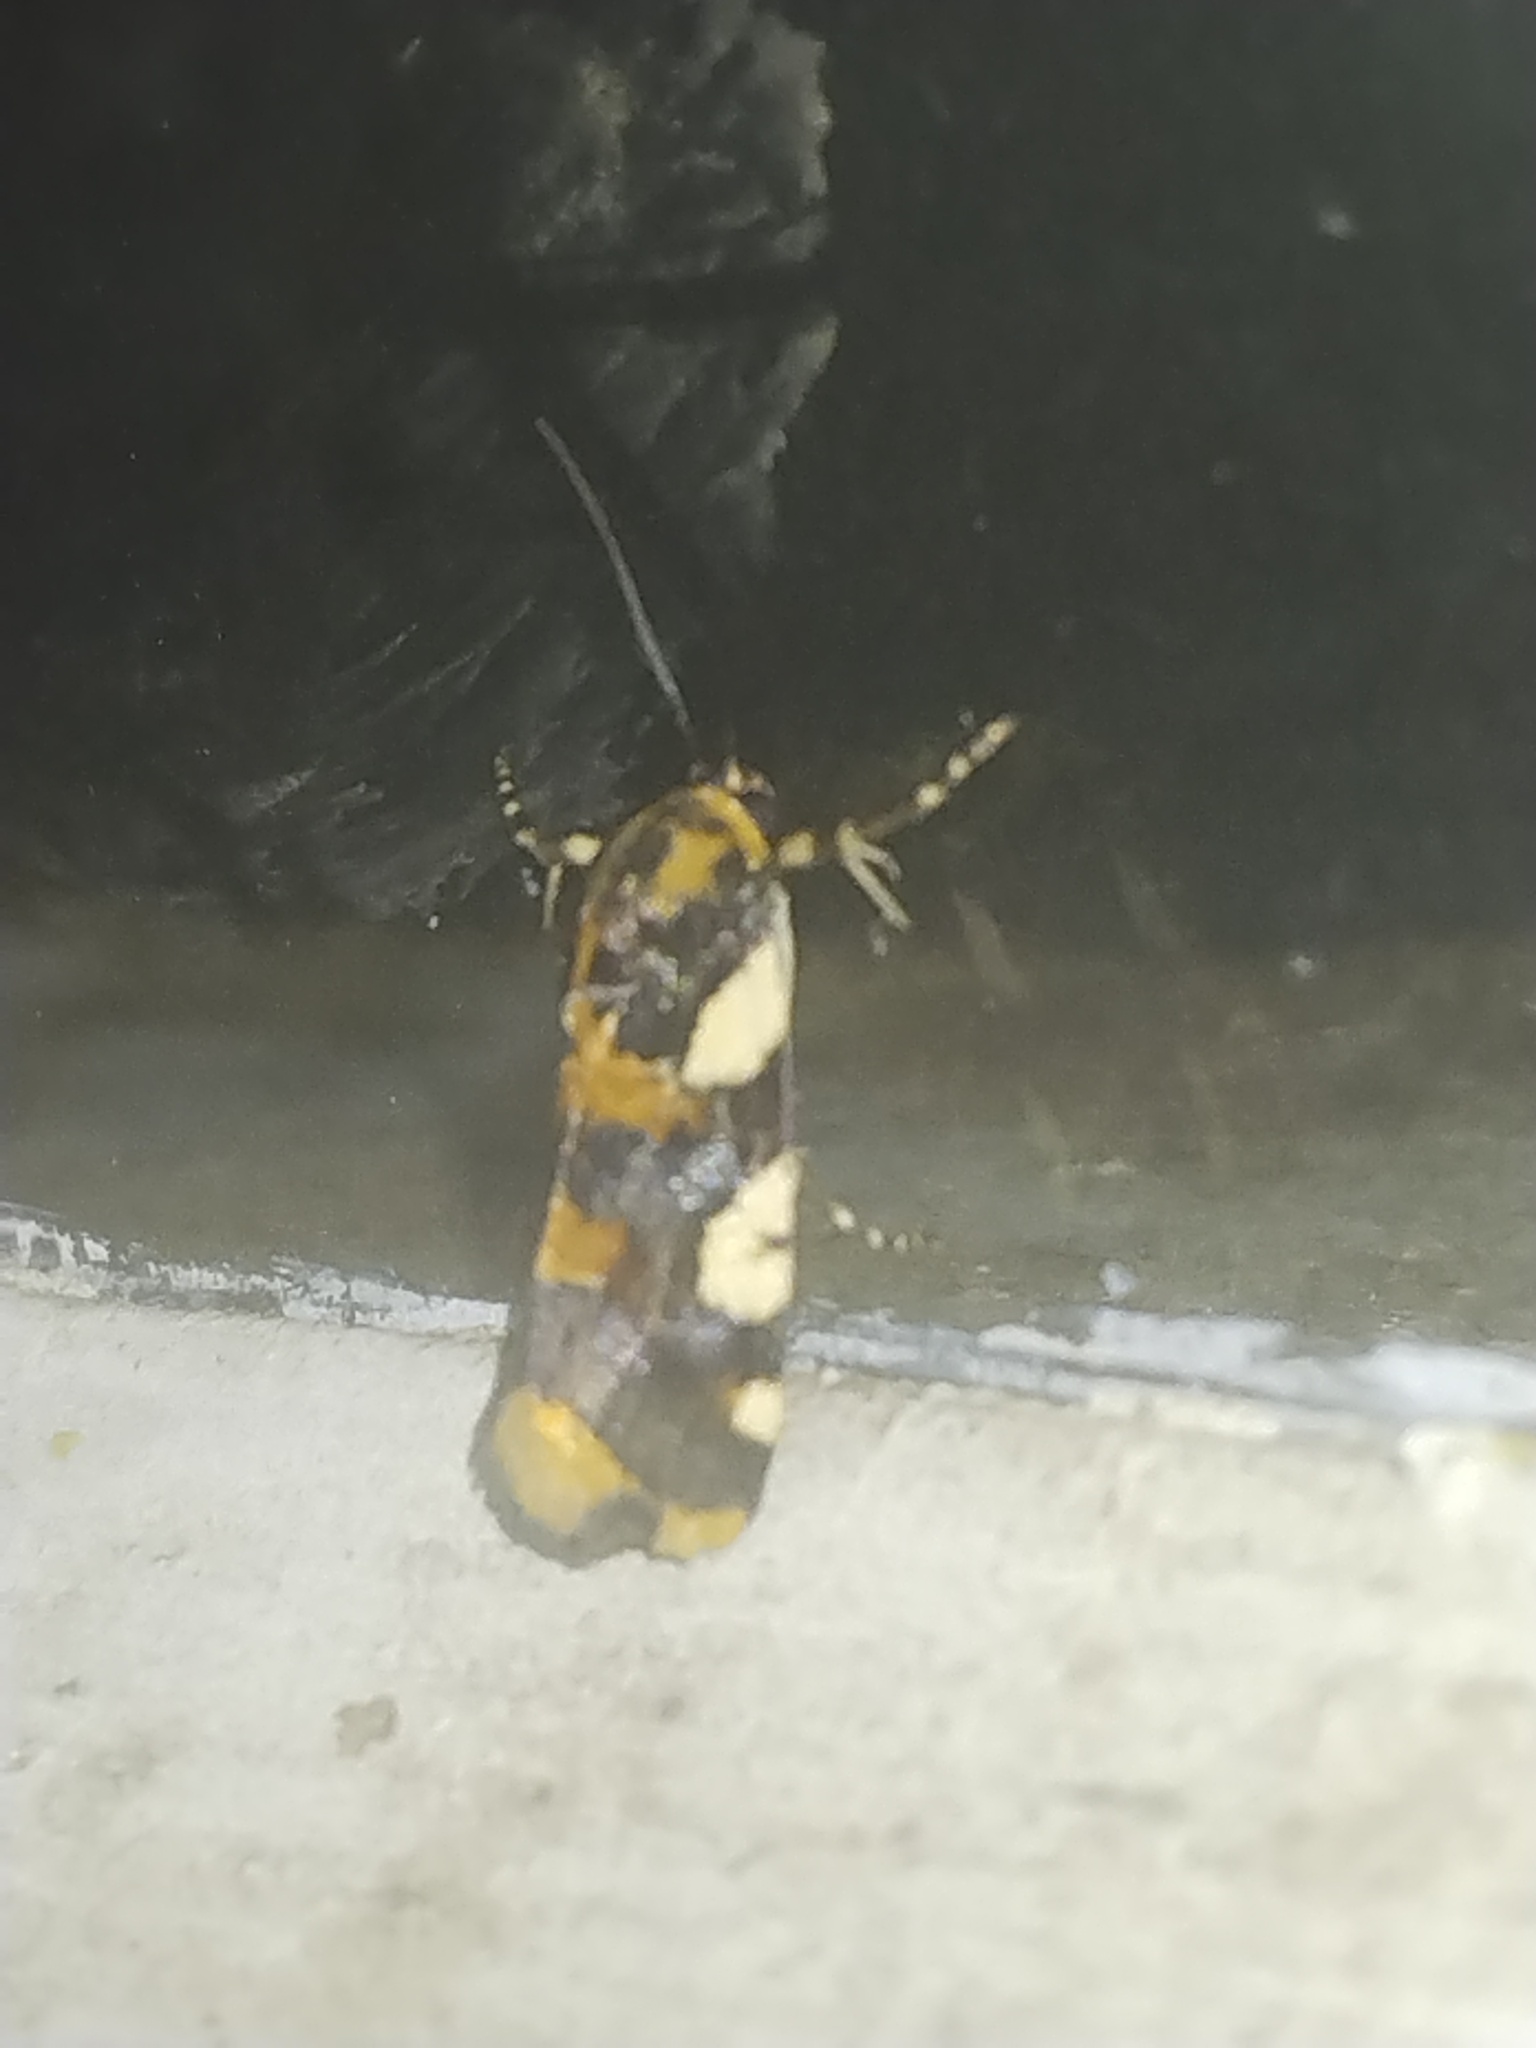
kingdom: Animalia
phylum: Arthropoda
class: Insecta
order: Lepidoptera
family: Noctuidae
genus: Acontia
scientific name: Acontia dama
